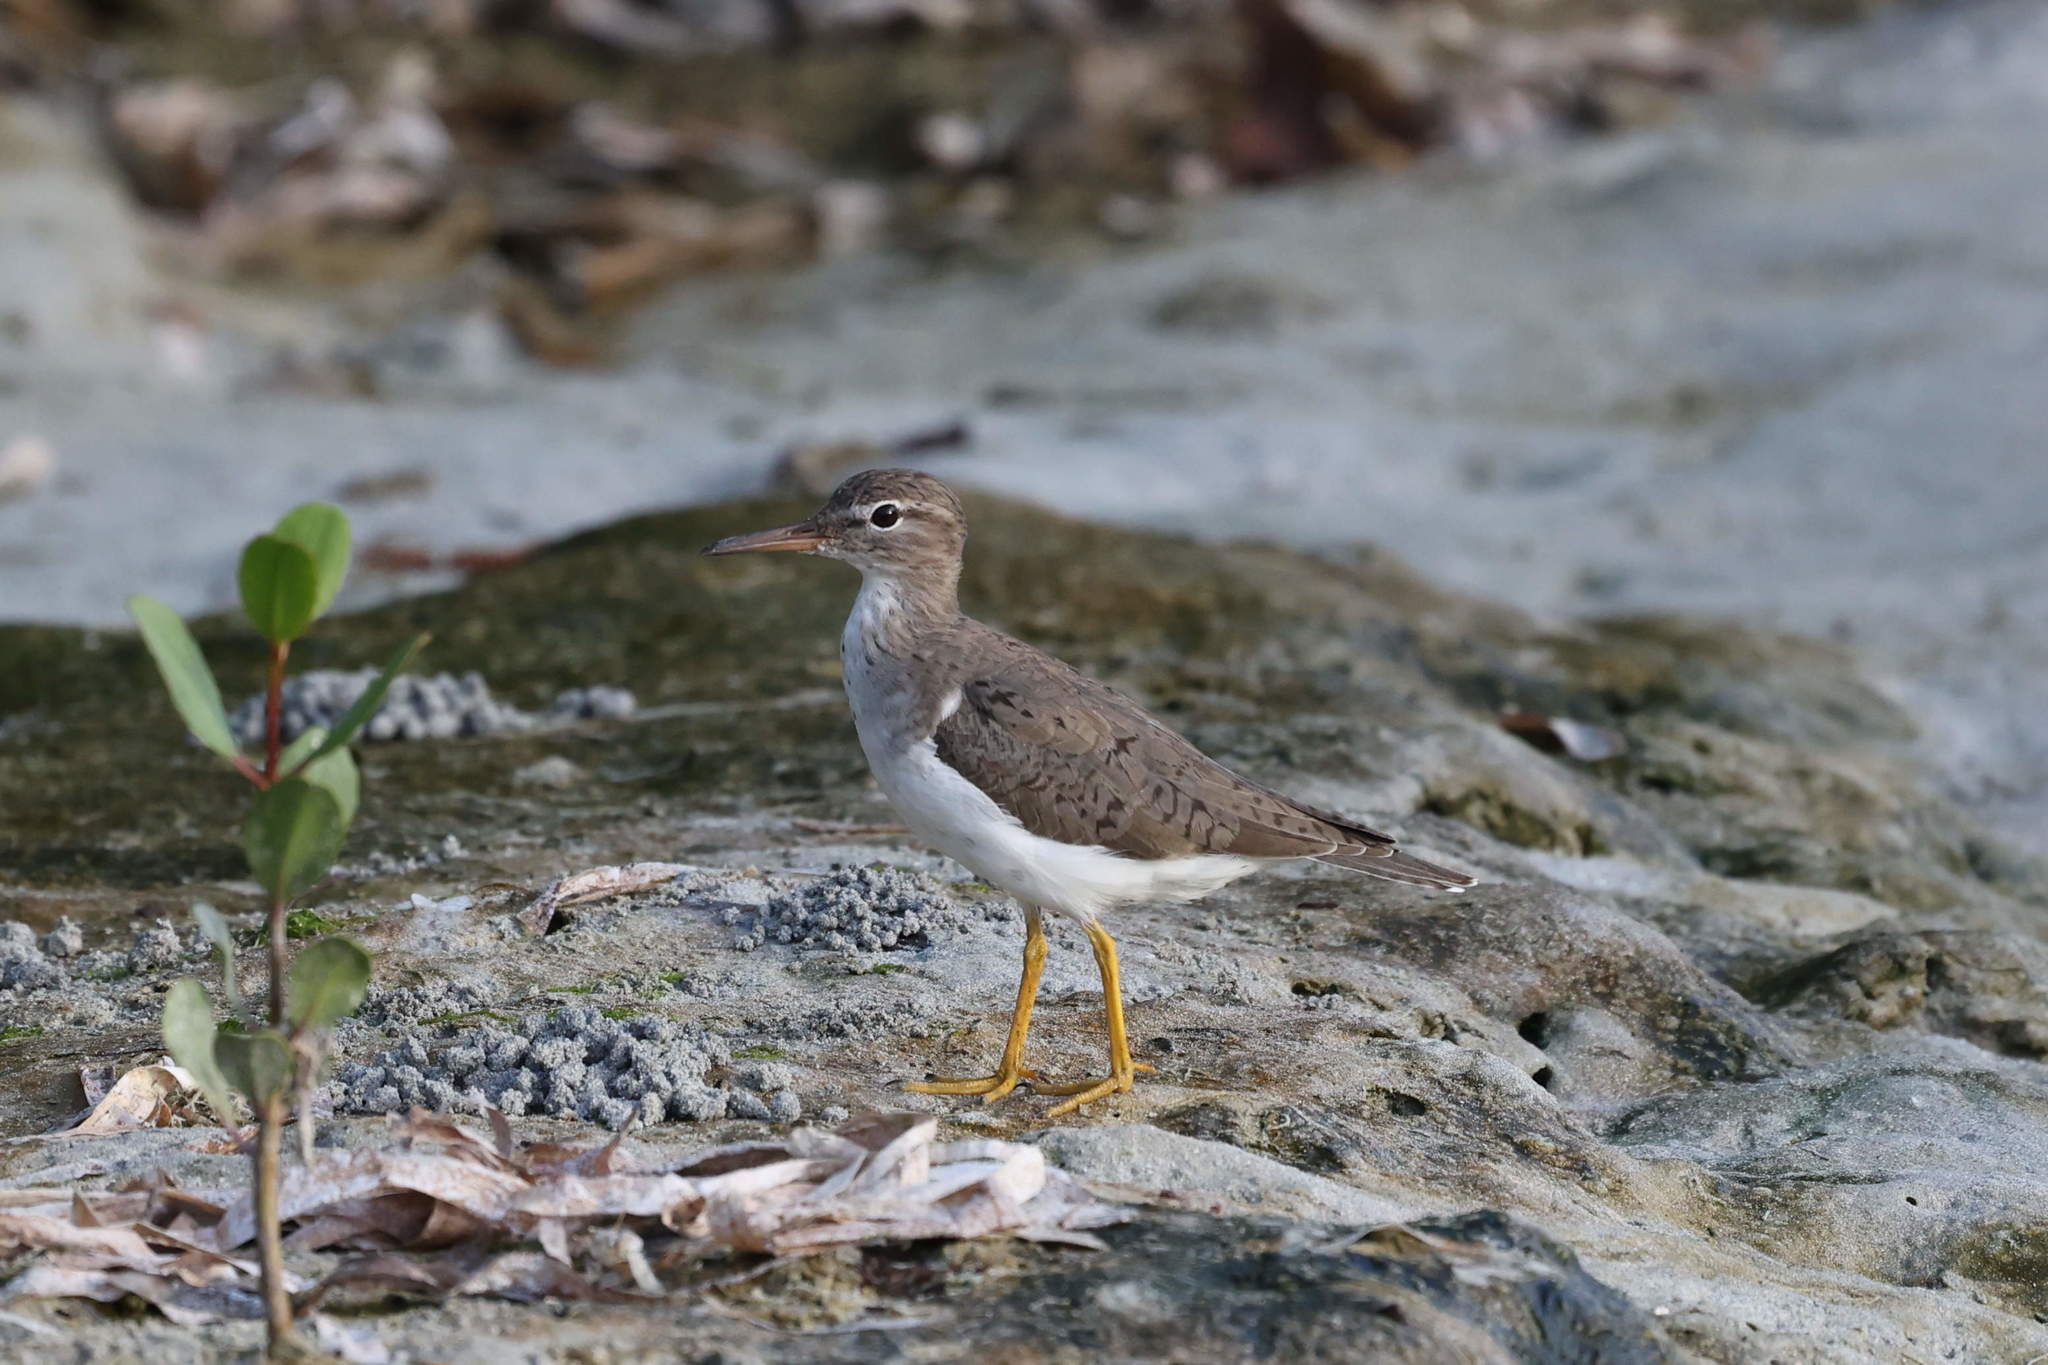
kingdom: Animalia
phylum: Chordata
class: Aves
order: Charadriiformes
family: Scolopacidae
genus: Actitis
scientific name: Actitis macularius
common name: Spotted sandpiper
